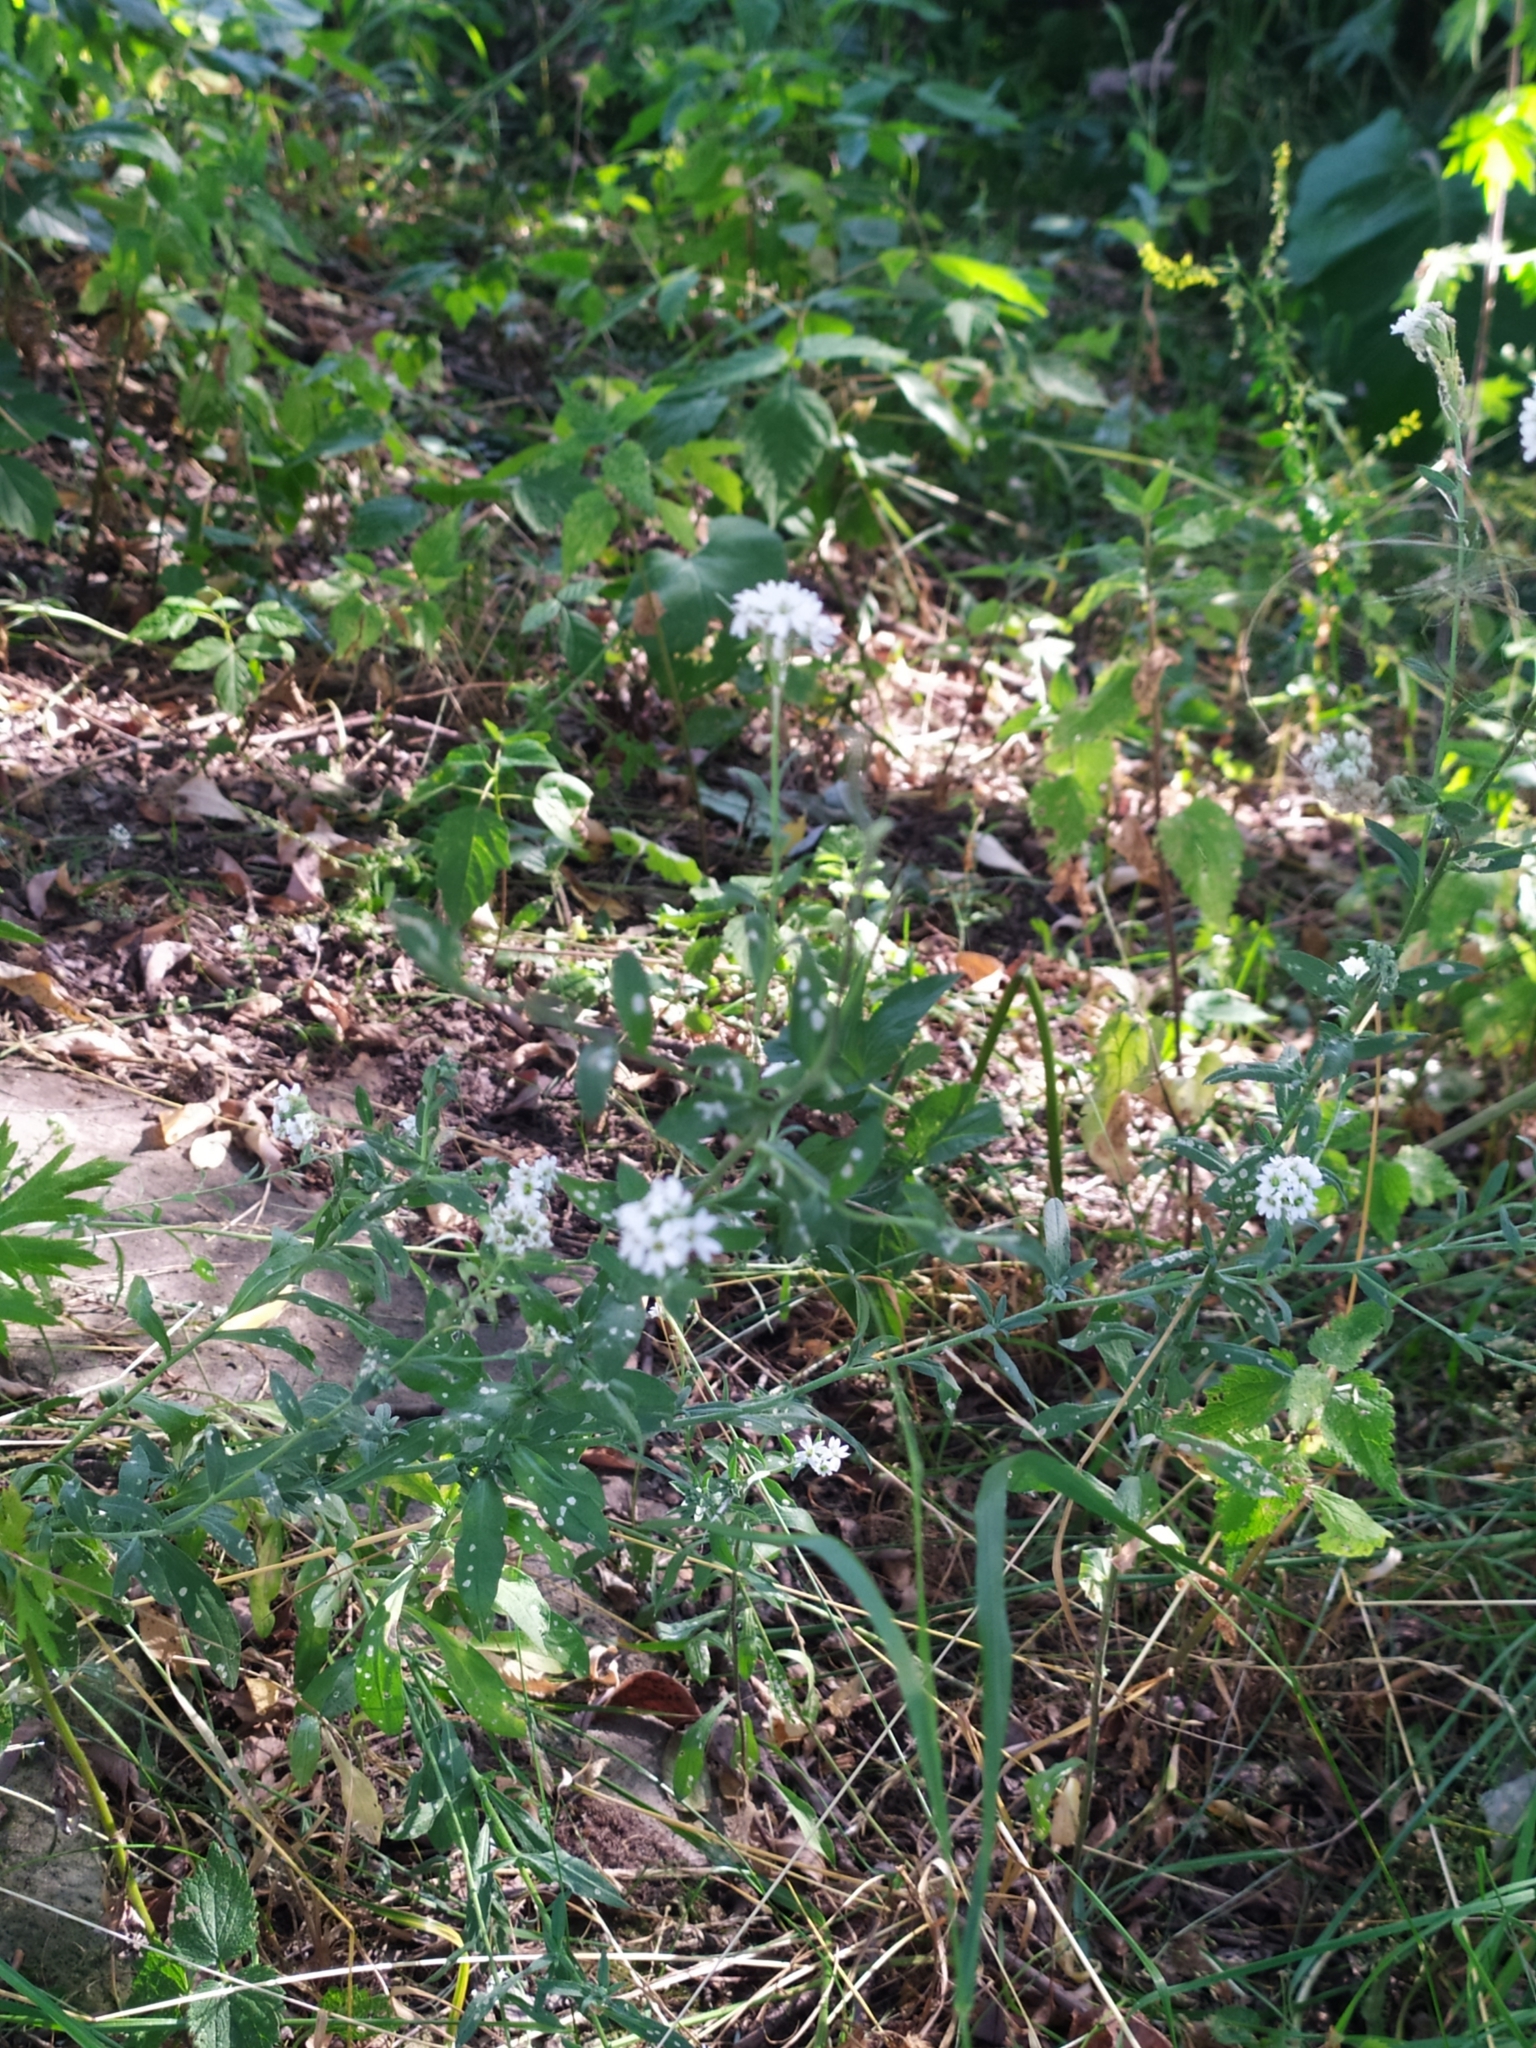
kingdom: Plantae
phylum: Tracheophyta
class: Magnoliopsida
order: Brassicales
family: Brassicaceae
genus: Berteroa
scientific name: Berteroa incana
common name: Hoary alison
